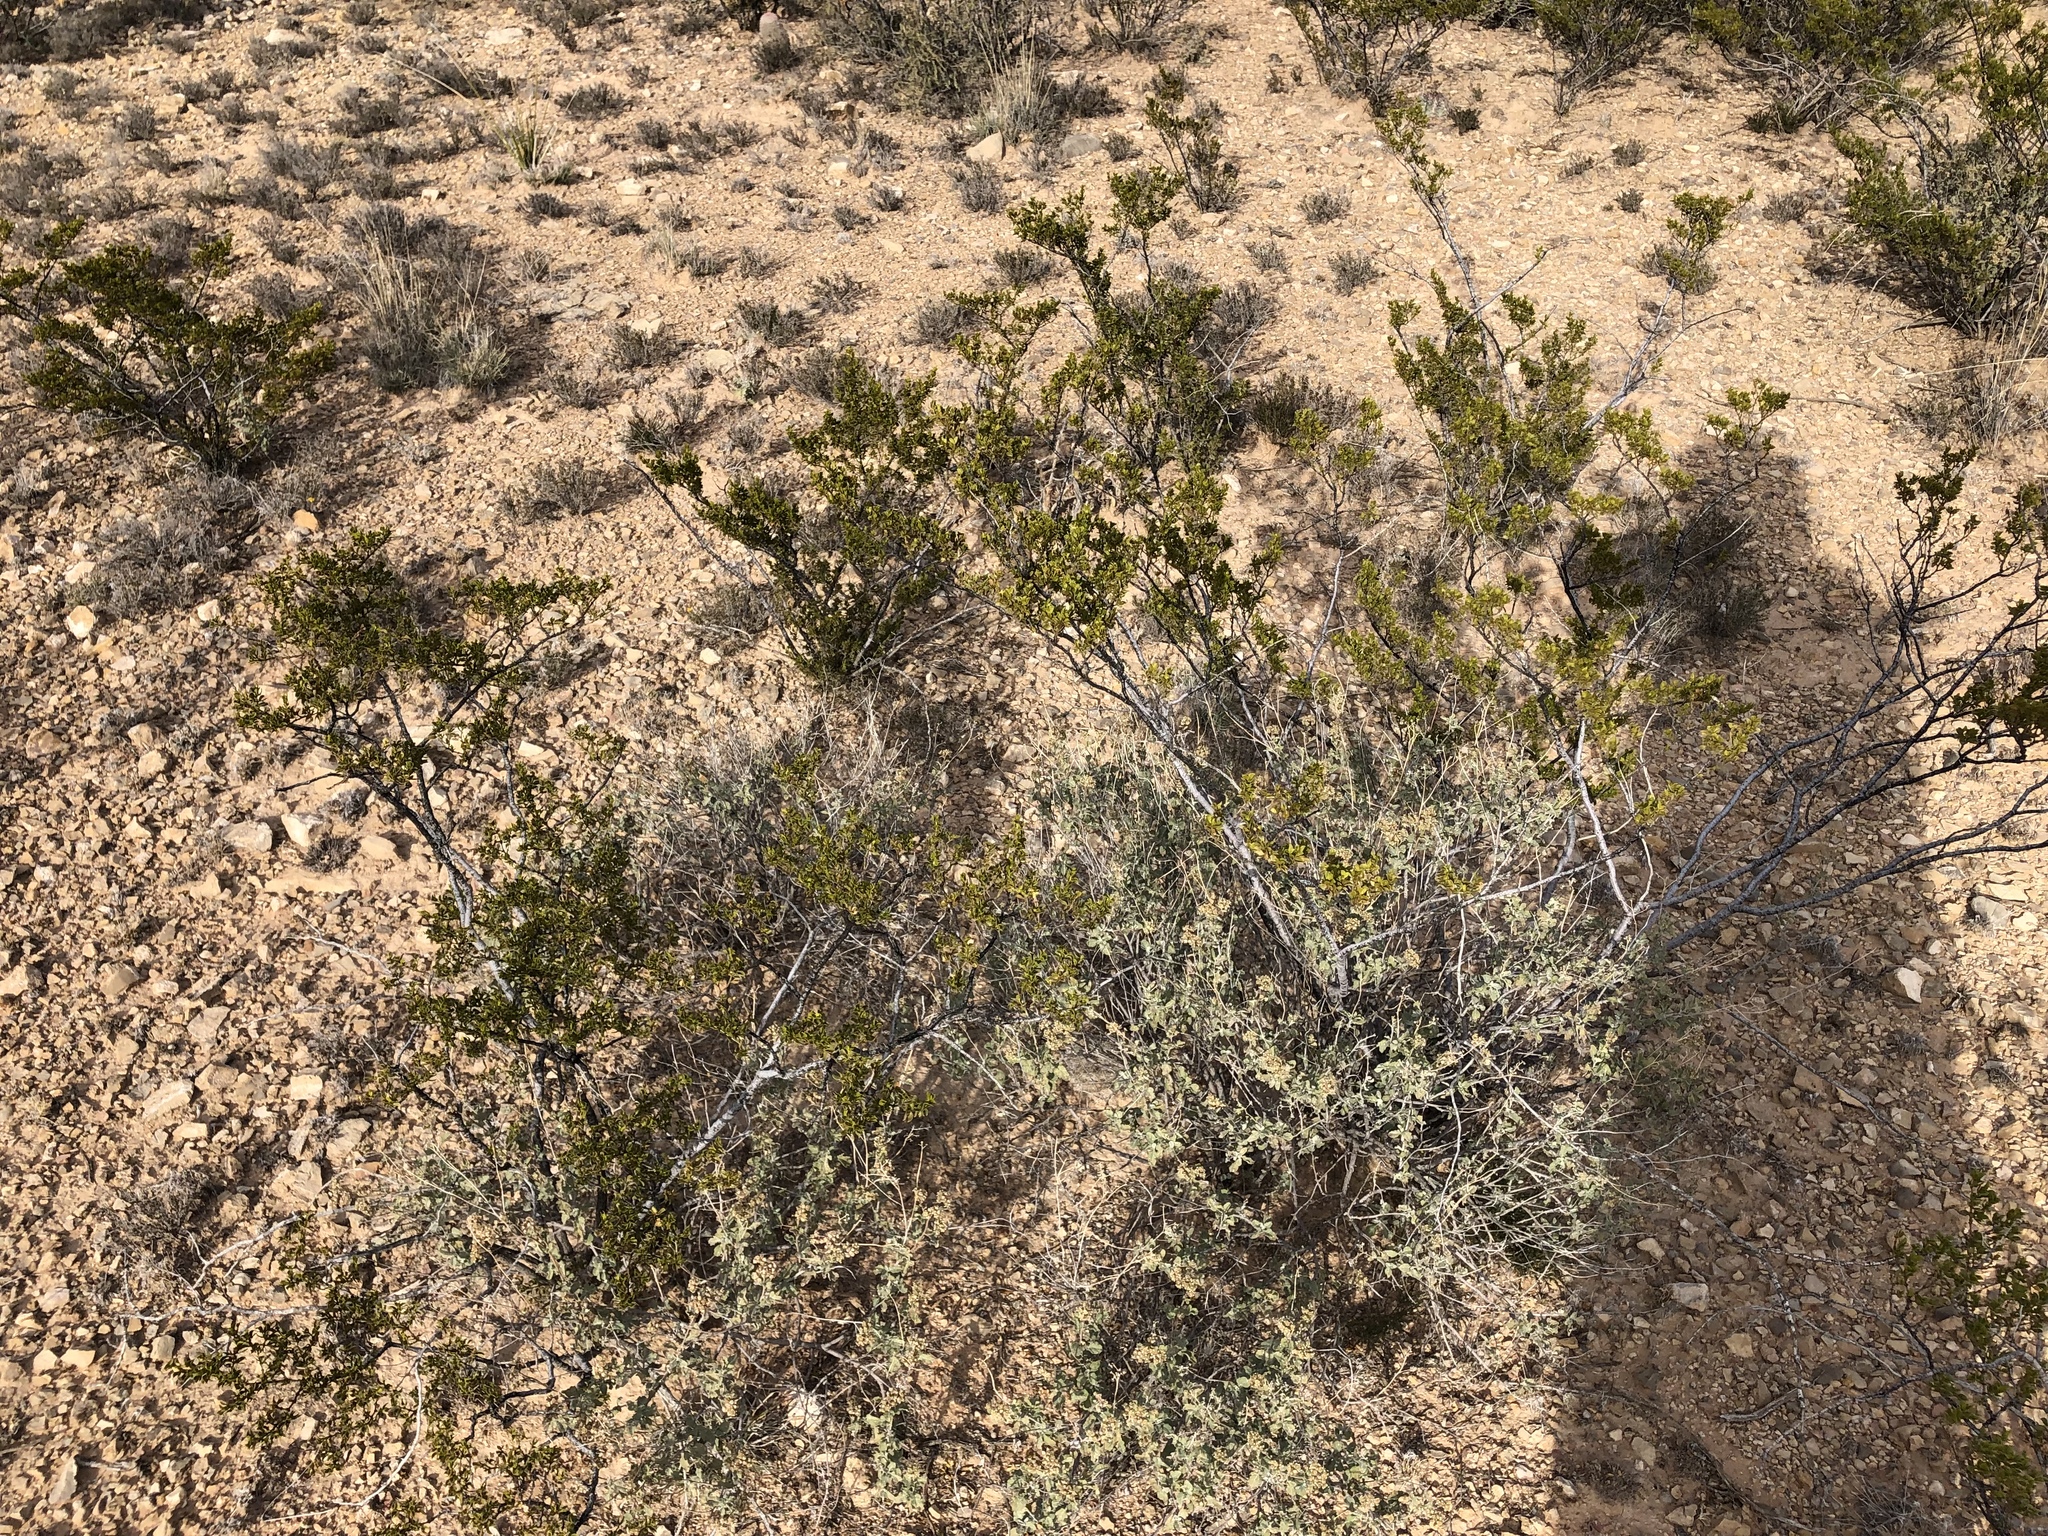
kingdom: Plantae
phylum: Tracheophyta
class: Magnoliopsida
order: Zygophyllales
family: Zygophyllaceae
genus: Larrea
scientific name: Larrea tridentata
